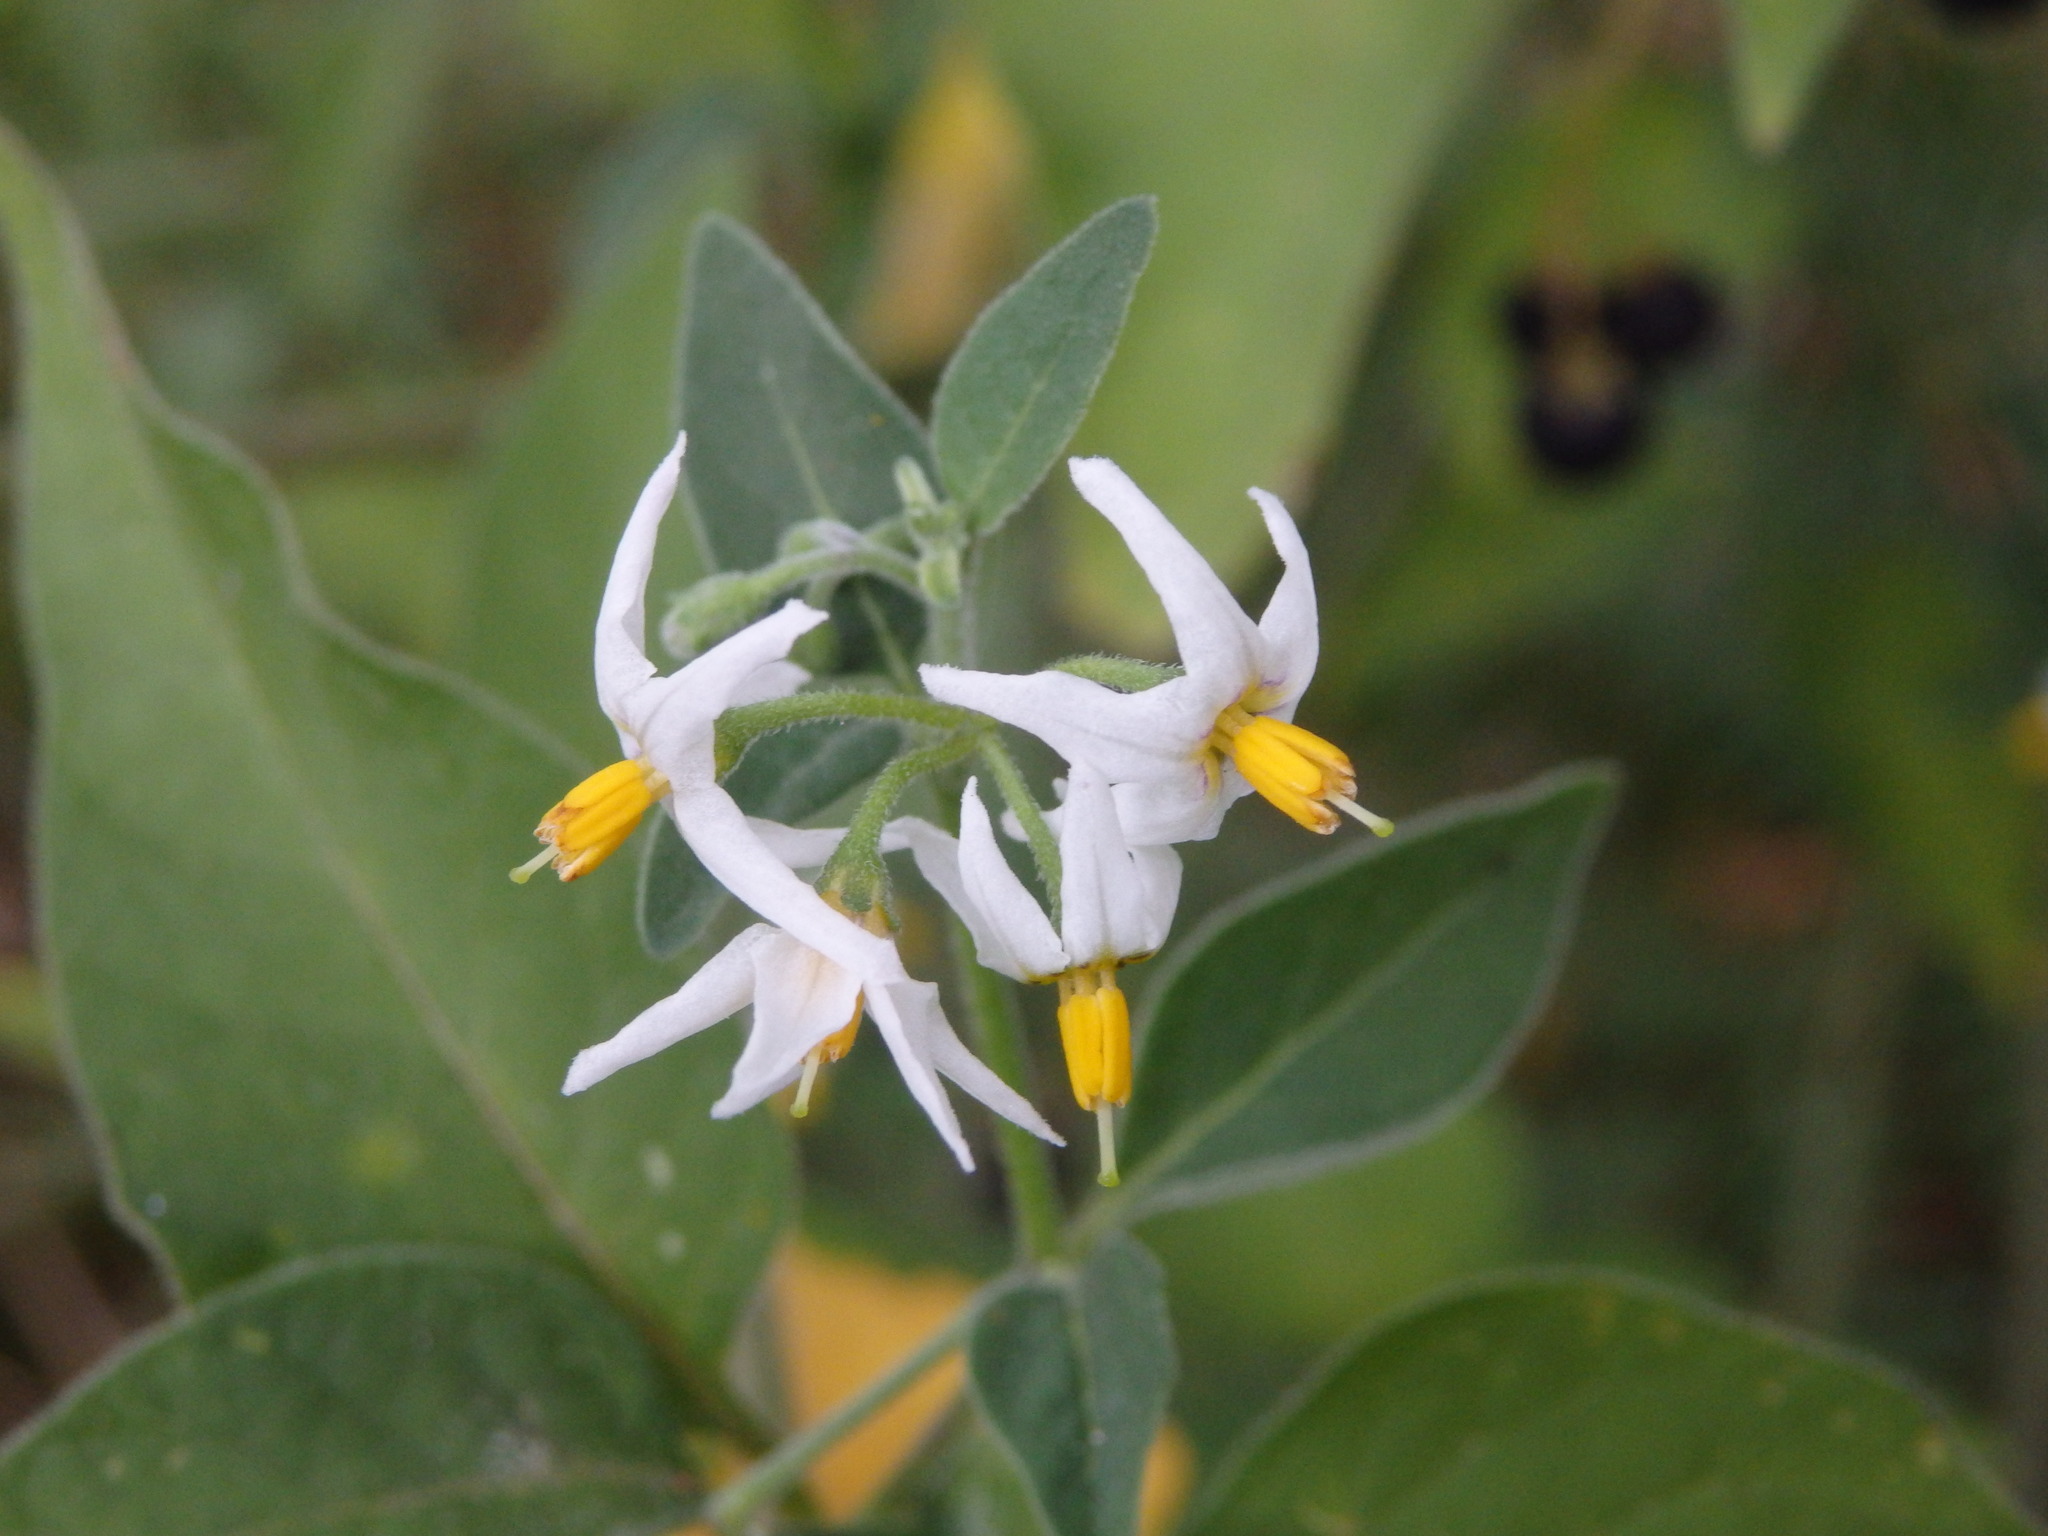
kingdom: Plantae
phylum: Tracheophyta
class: Magnoliopsida
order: Solanales
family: Solanaceae
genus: Solanum
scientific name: Solanum chenopodioides
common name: Tall nightshade
